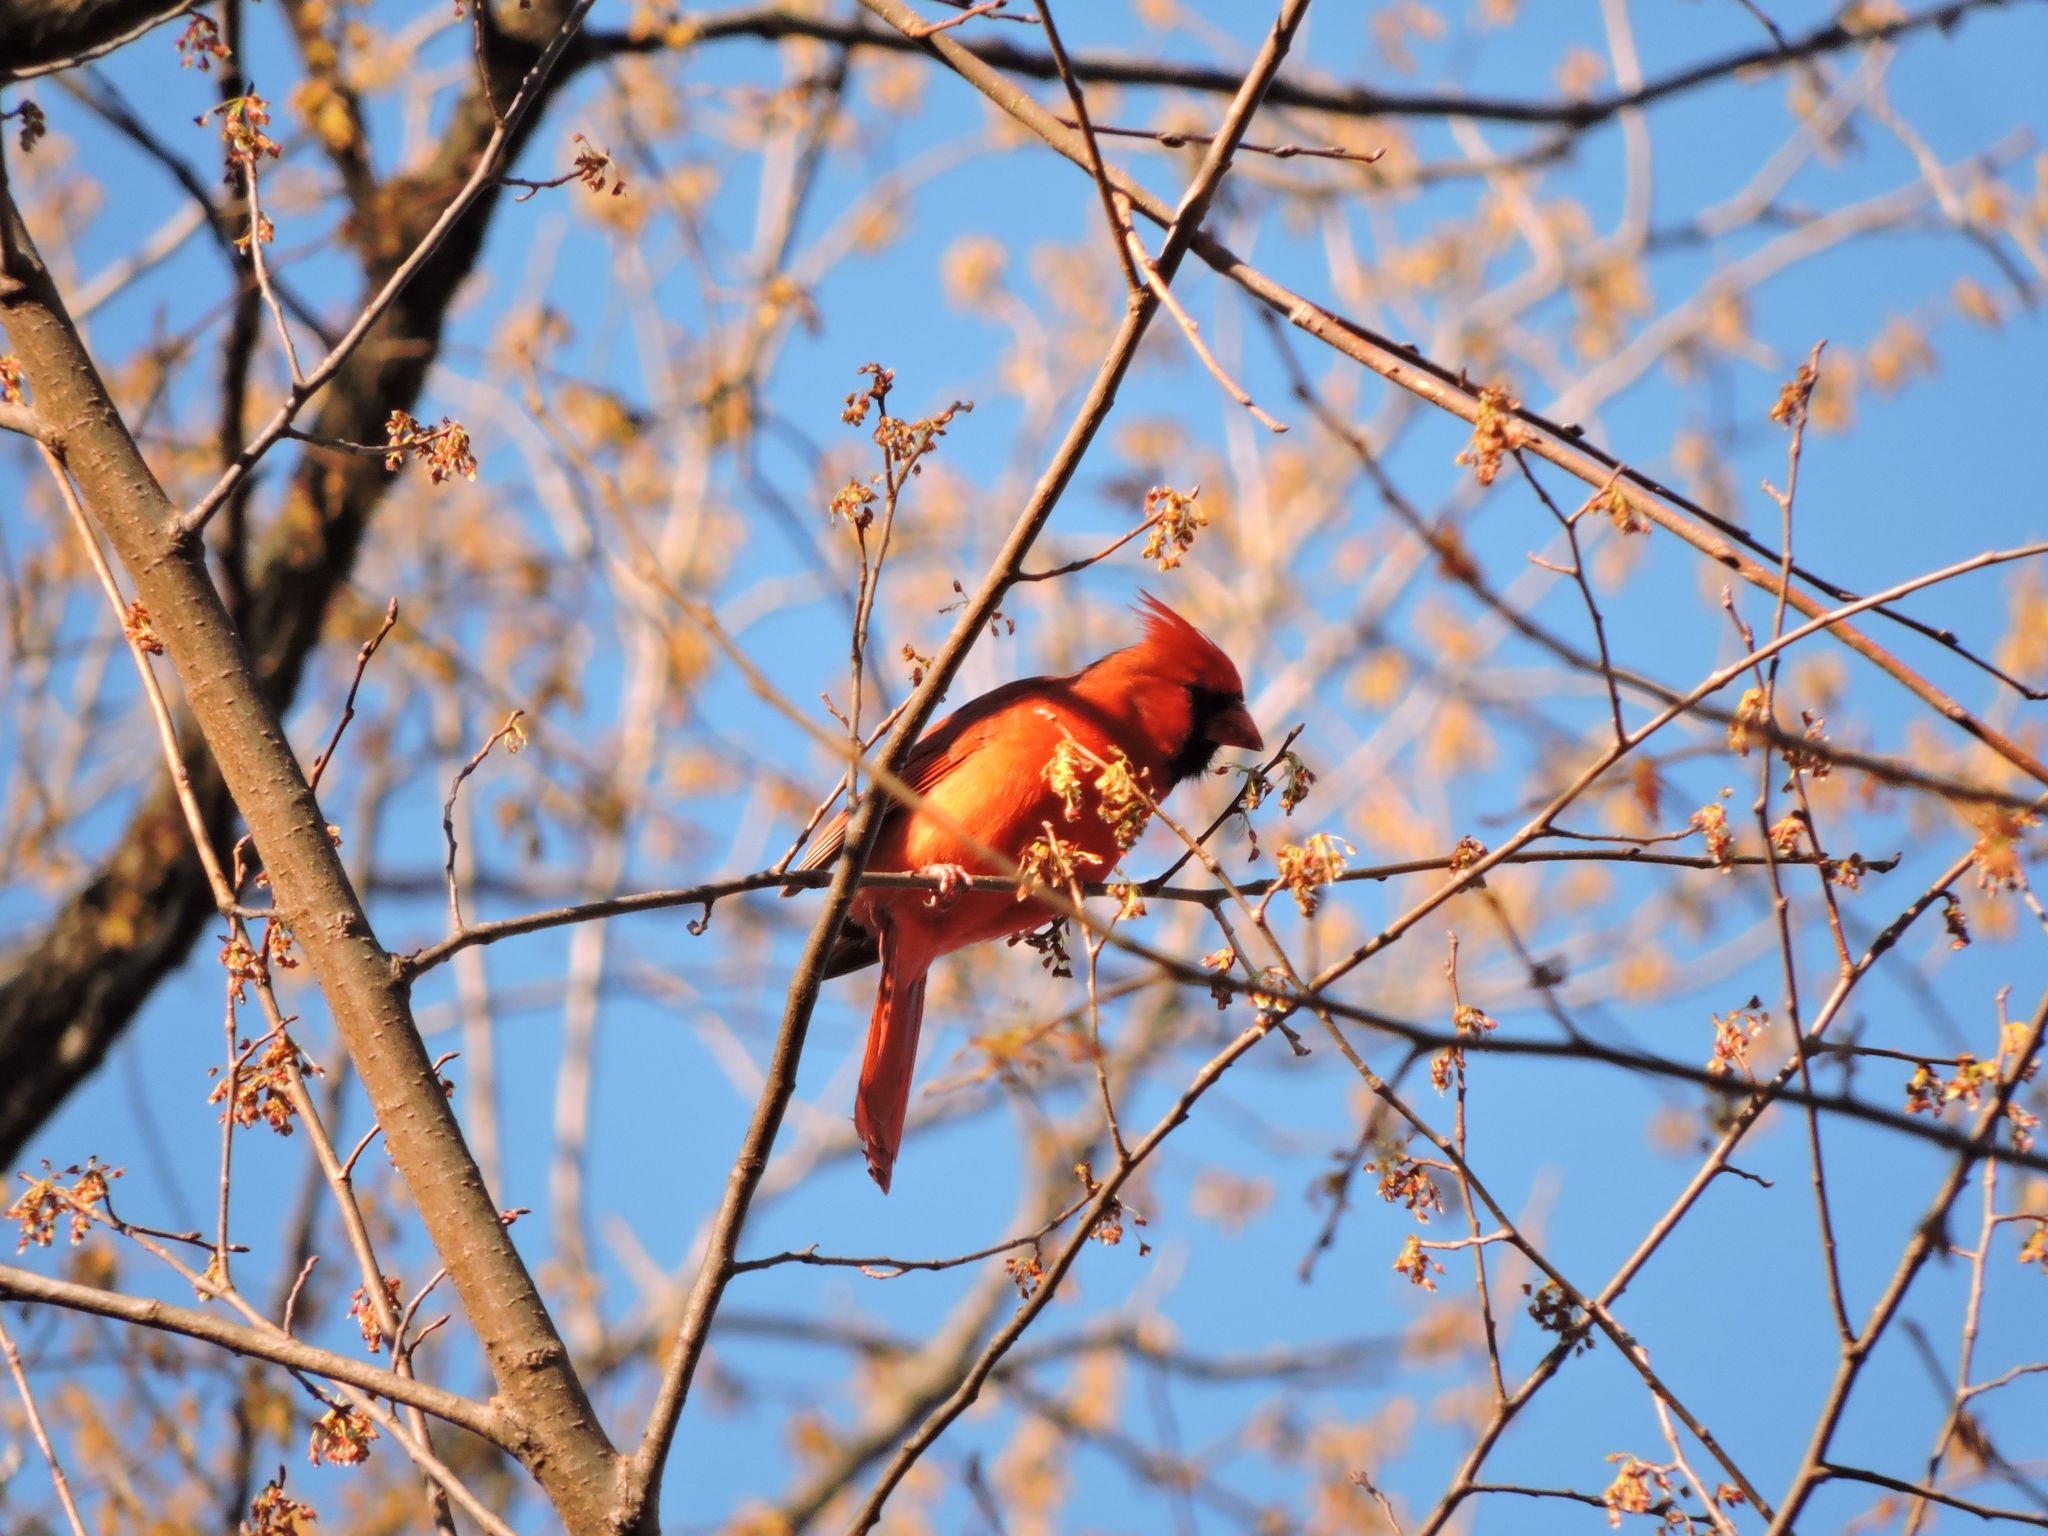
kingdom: Animalia
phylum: Chordata
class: Aves
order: Passeriformes
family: Cardinalidae
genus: Cardinalis
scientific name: Cardinalis cardinalis
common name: Northern cardinal
